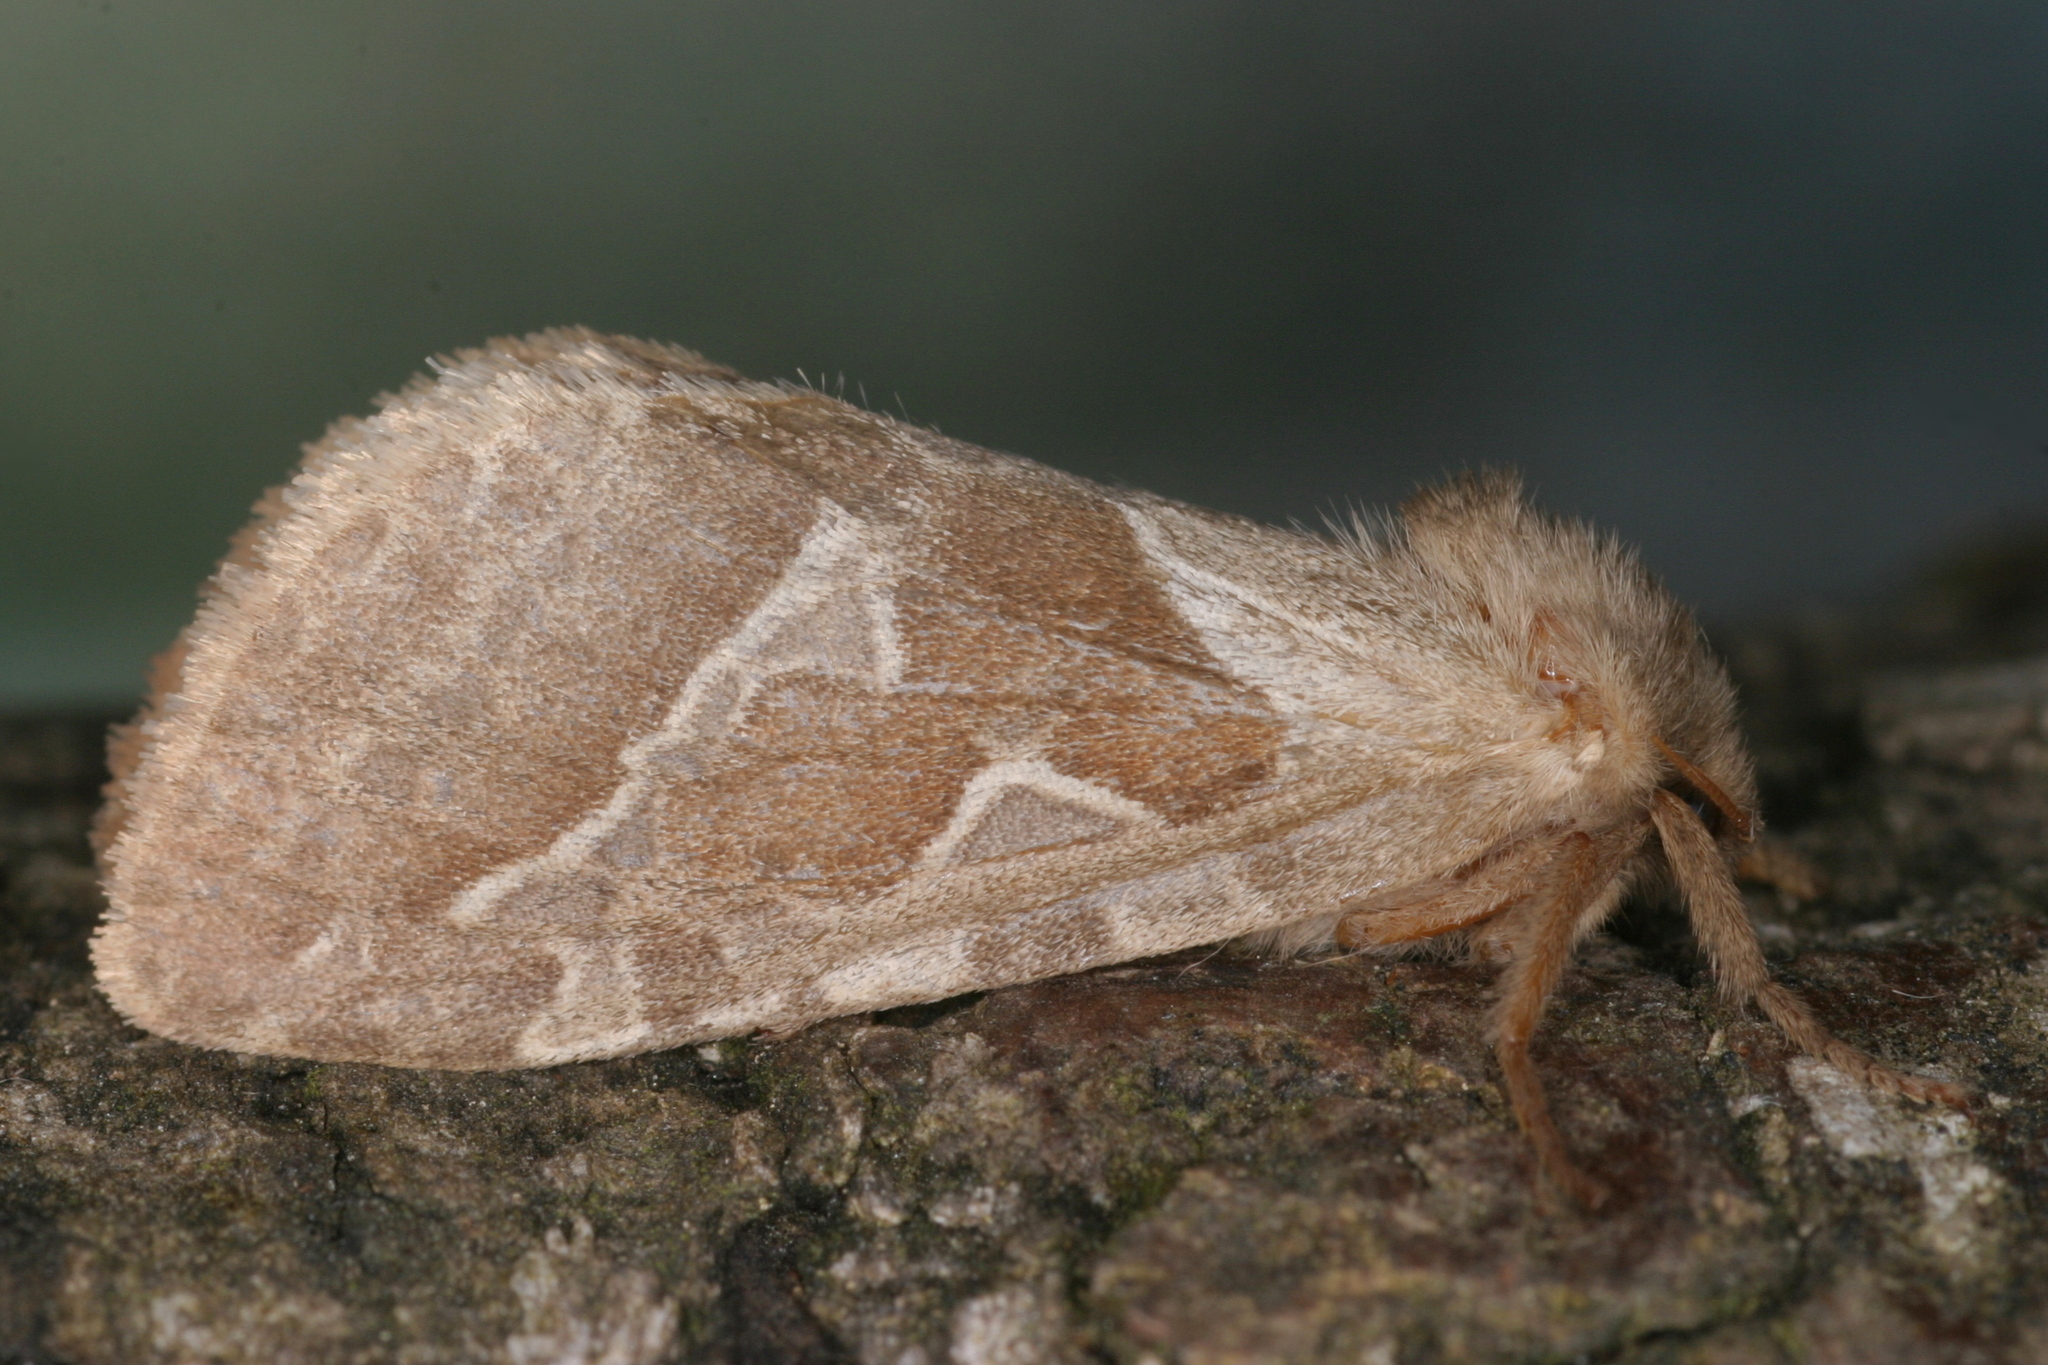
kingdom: Animalia
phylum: Arthropoda
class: Insecta
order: Lepidoptera
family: Hepialidae
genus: Triodia
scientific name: Triodia sylvina
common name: Orange swift
